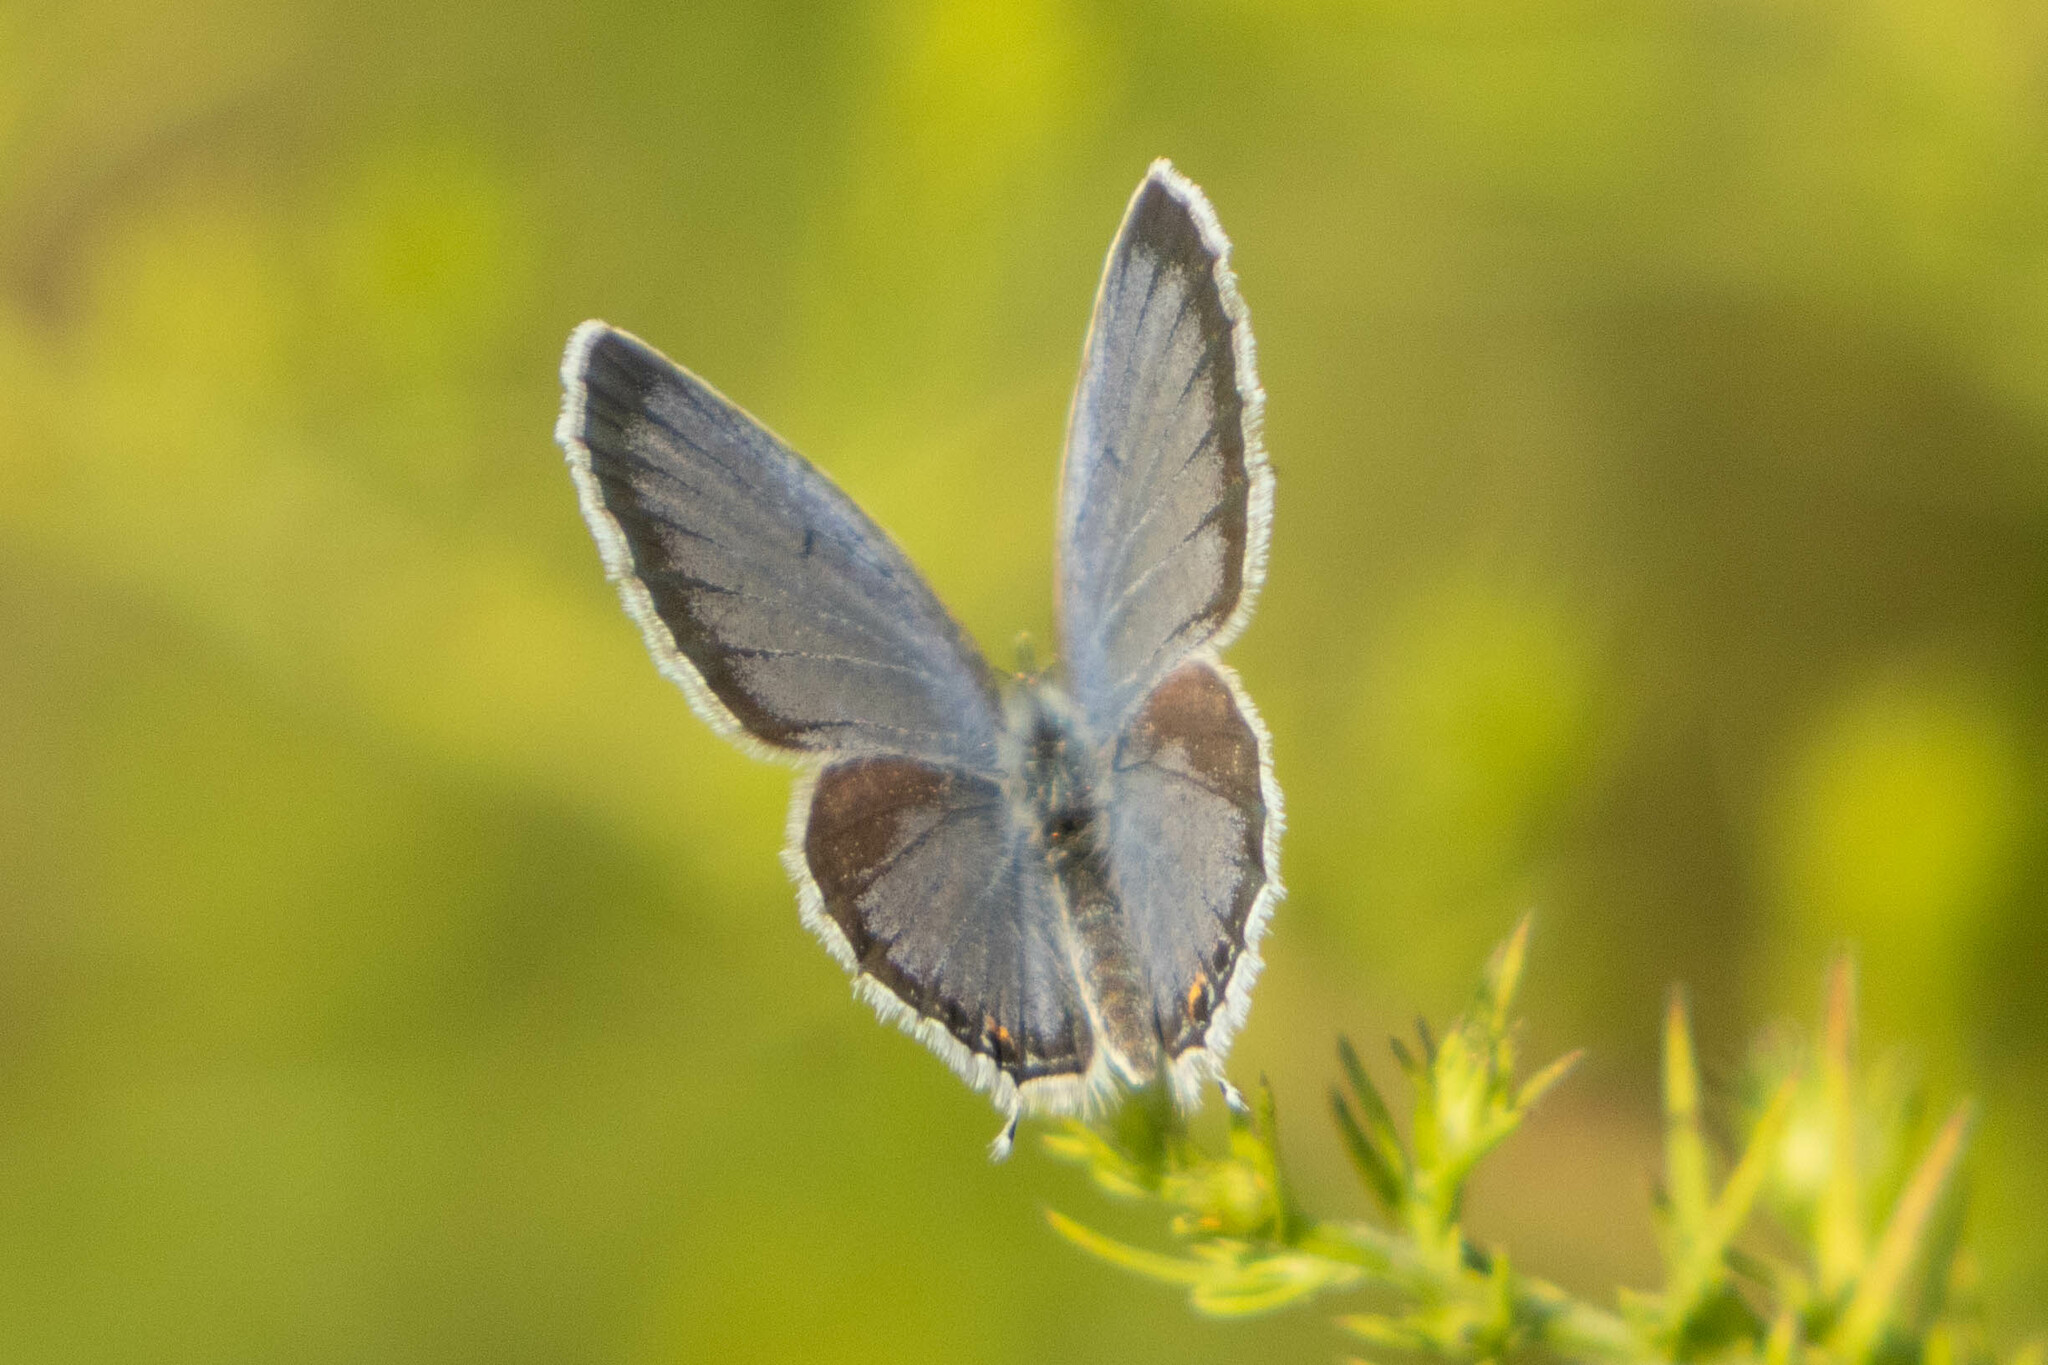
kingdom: Animalia
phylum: Arthropoda
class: Insecta
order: Lepidoptera
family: Lycaenidae
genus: Elkalyce
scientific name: Elkalyce comyntas
